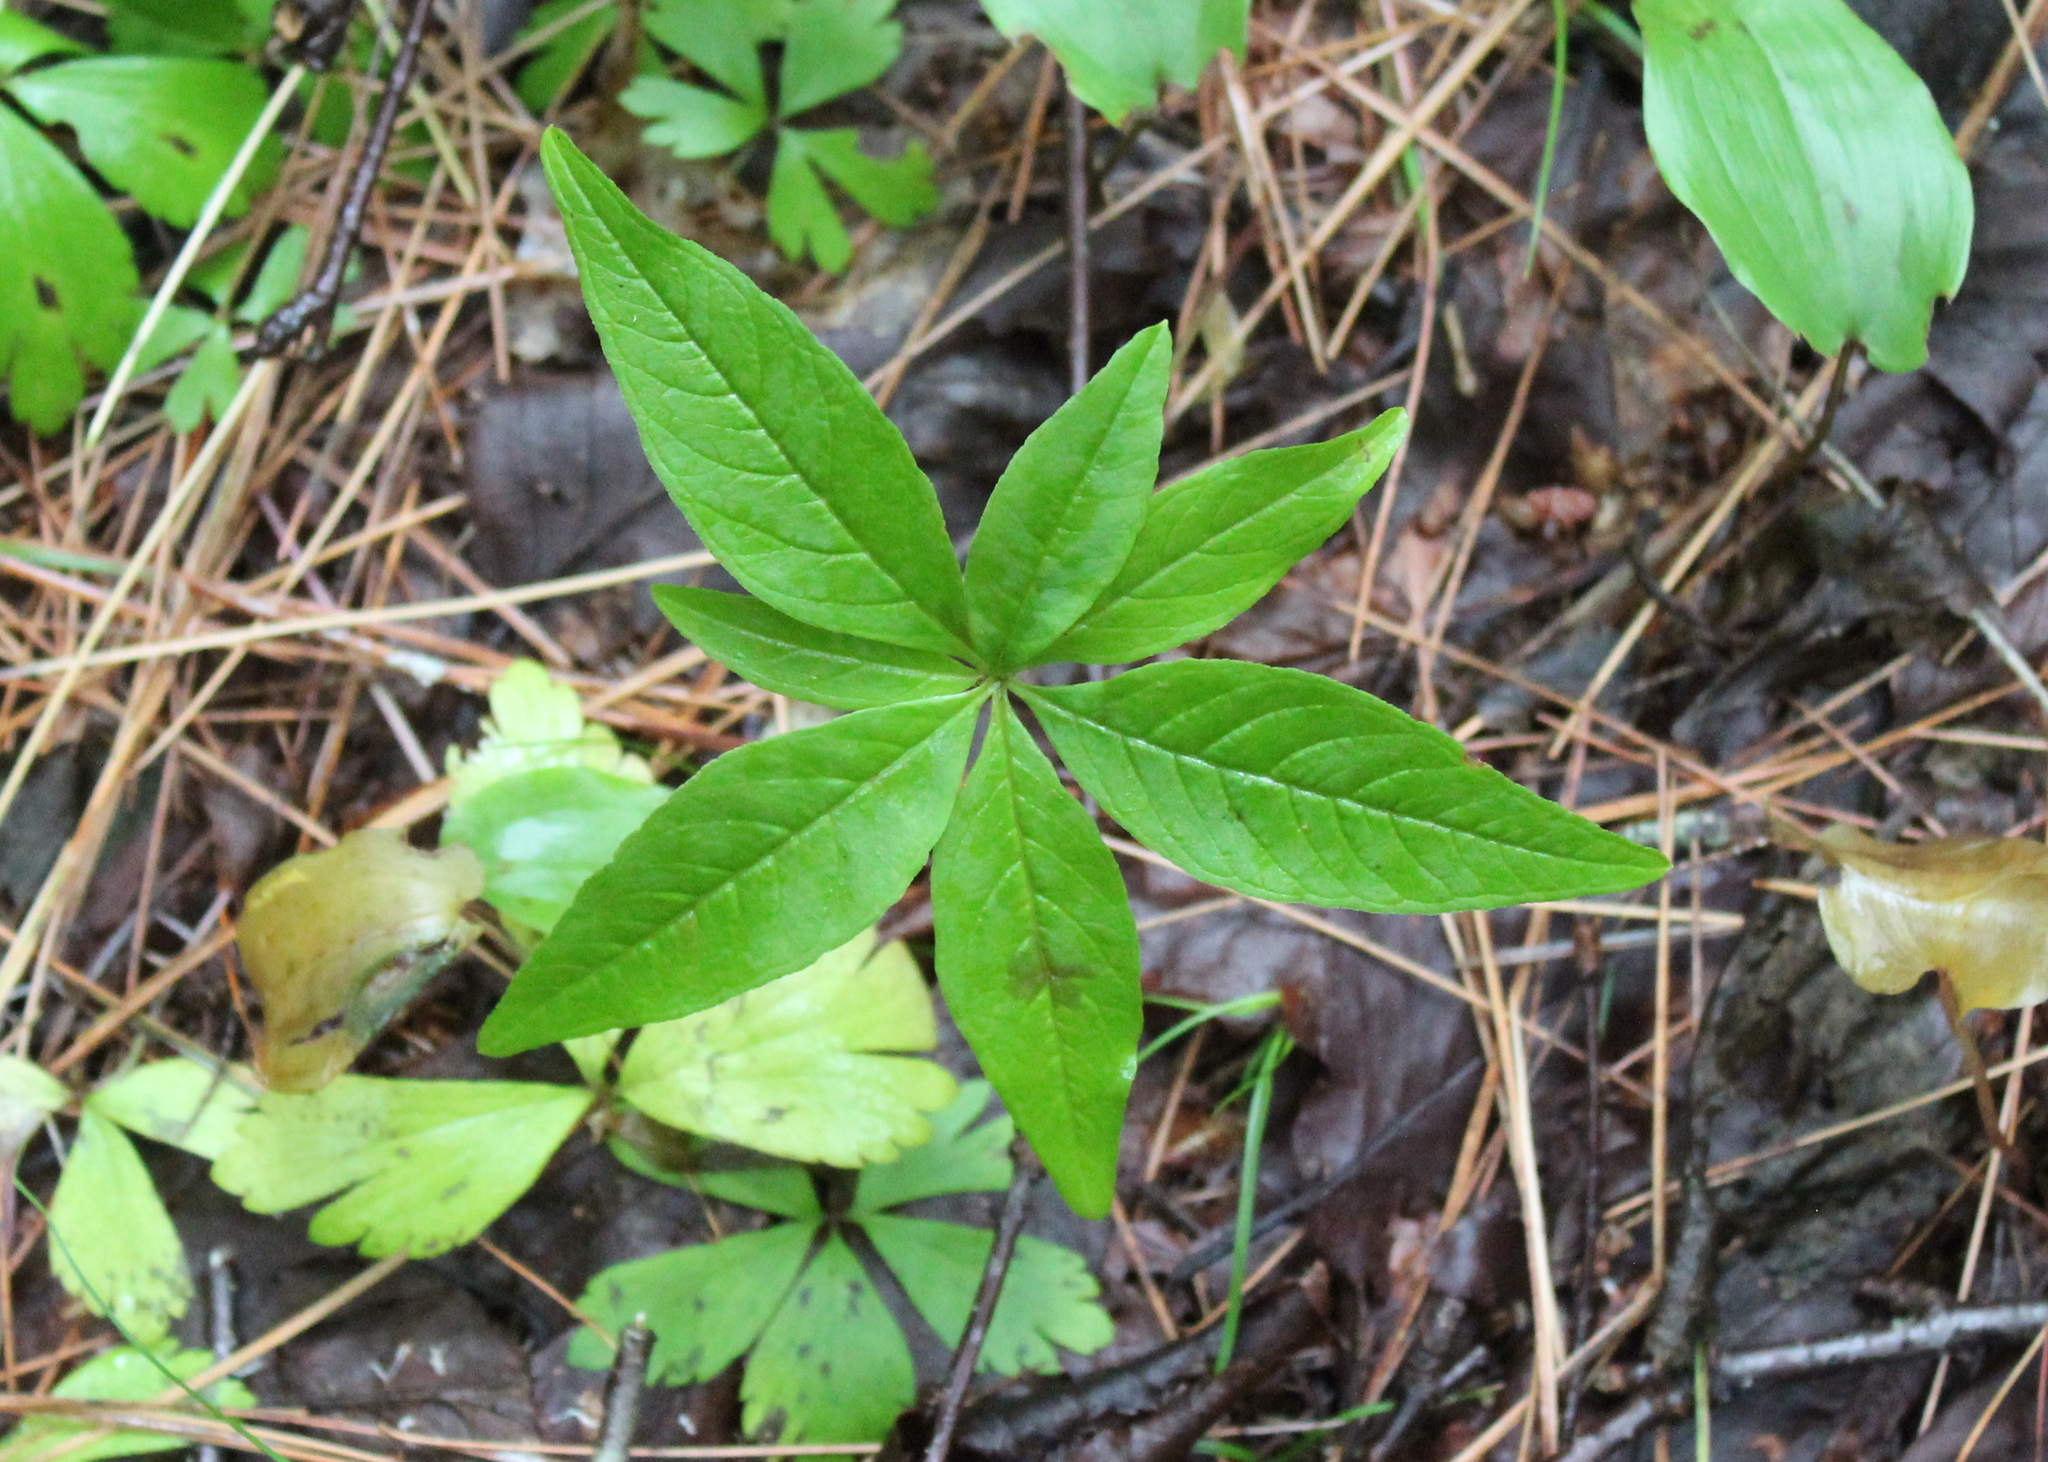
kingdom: Plantae
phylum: Tracheophyta
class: Magnoliopsida
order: Ericales
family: Primulaceae
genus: Lysimachia
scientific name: Lysimachia borealis
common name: American starflower
